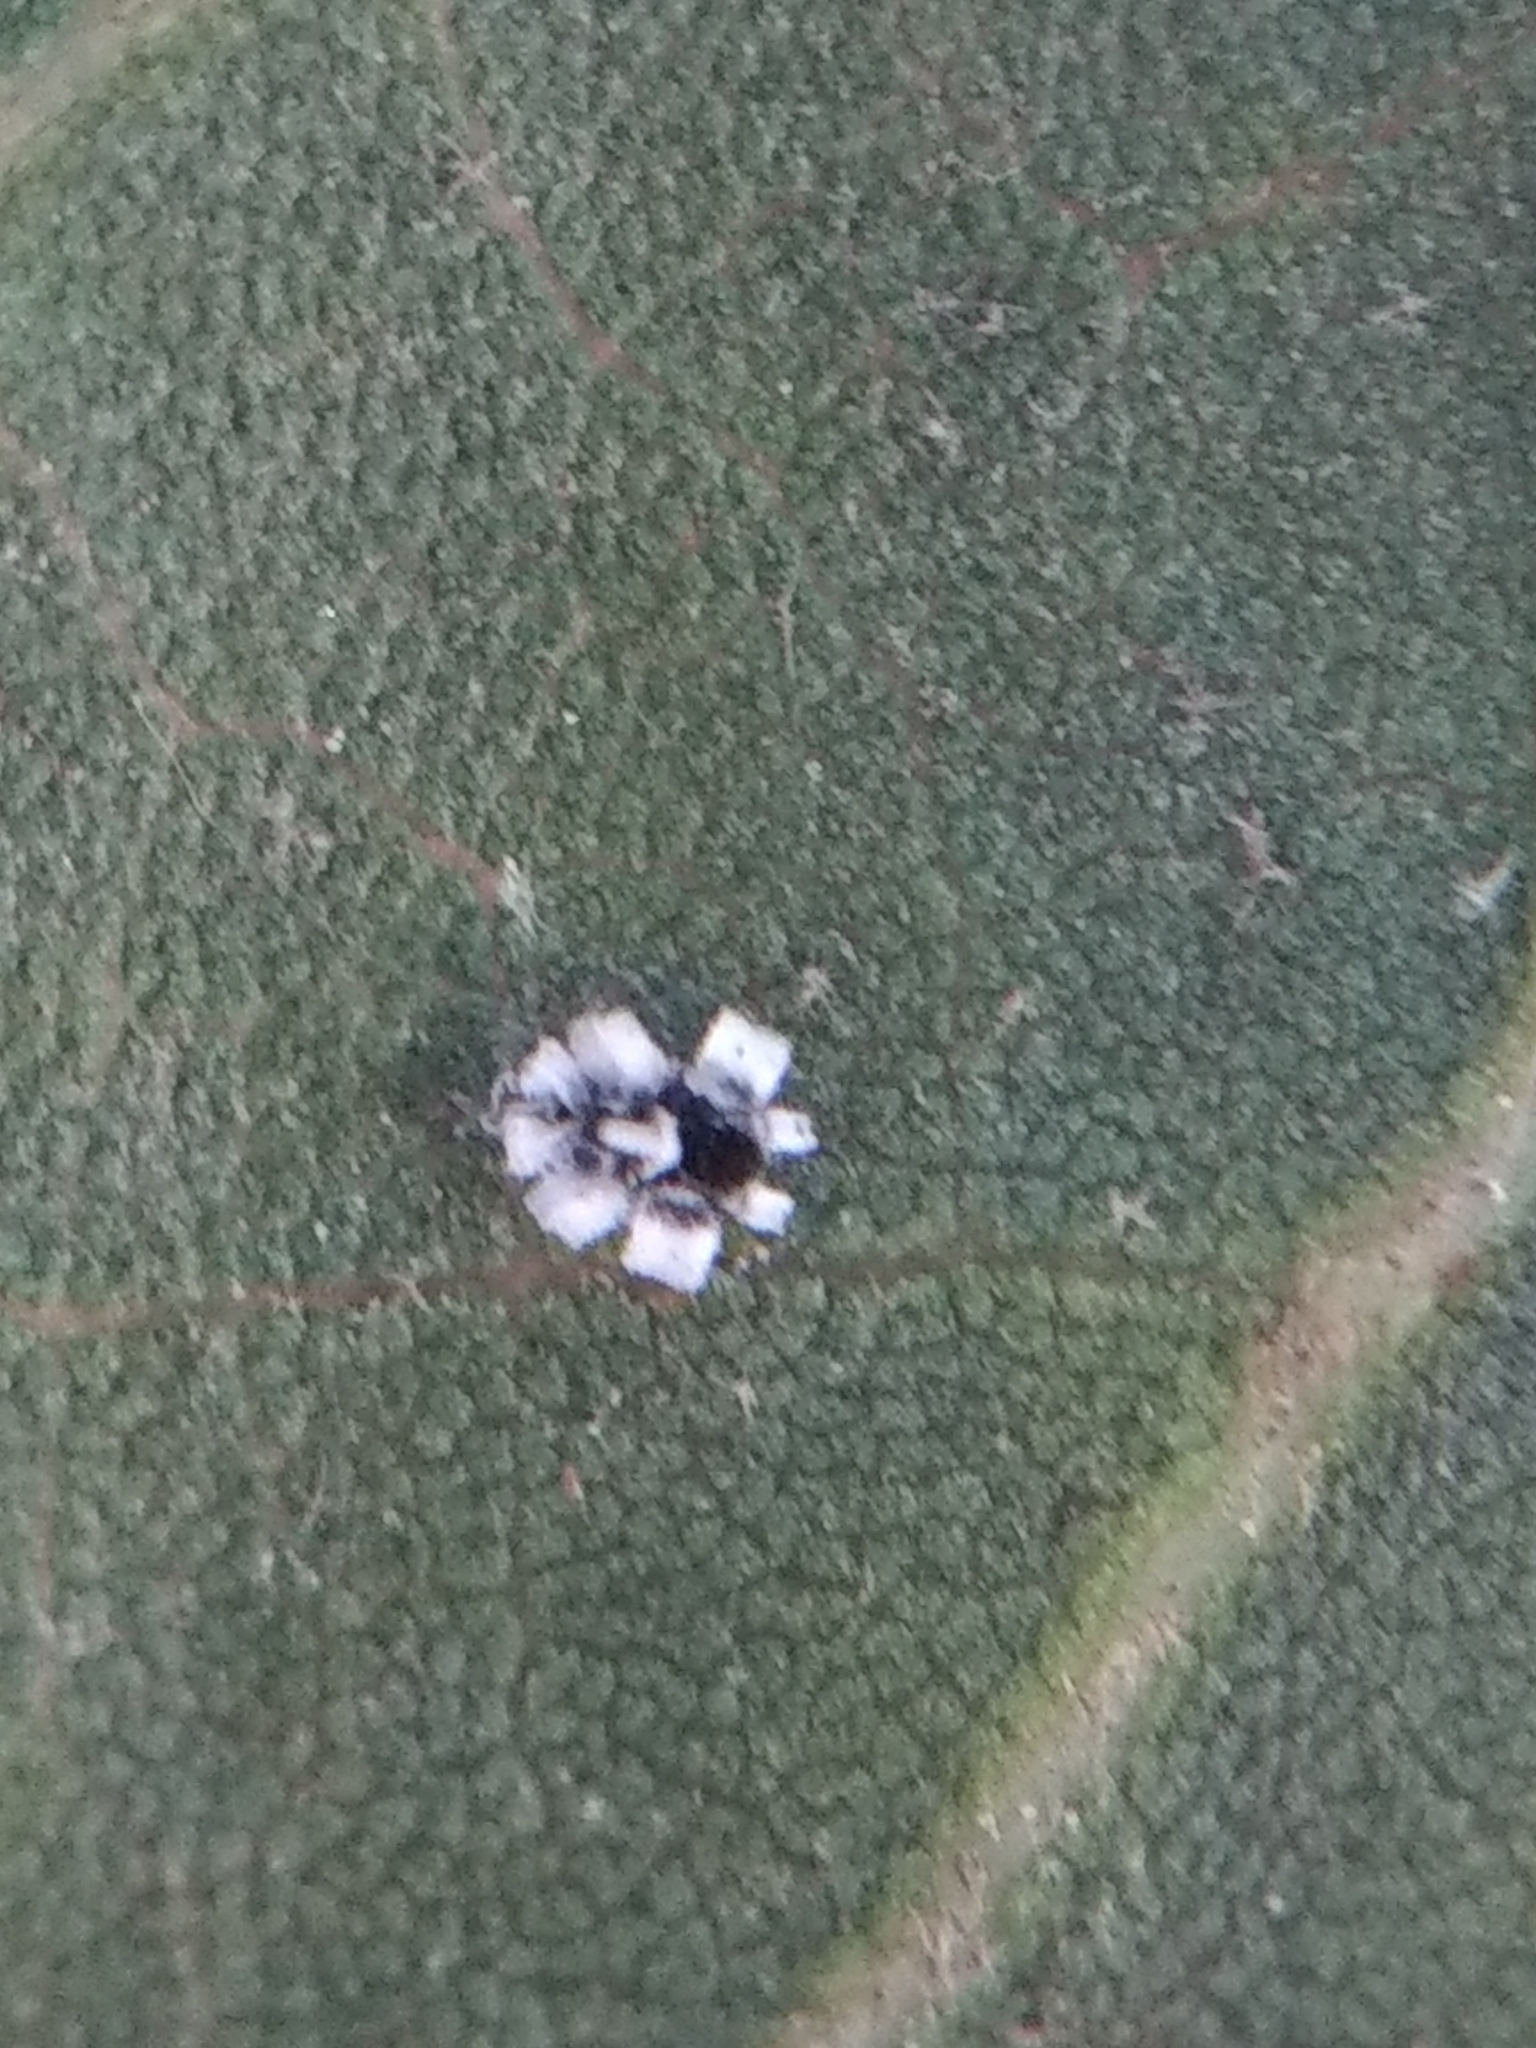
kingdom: Animalia
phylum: Arthropoda
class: Insecta
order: Hemiptera
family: Aleyrodidae
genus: Aleuroplatus
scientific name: Aleuroplatus coronata
